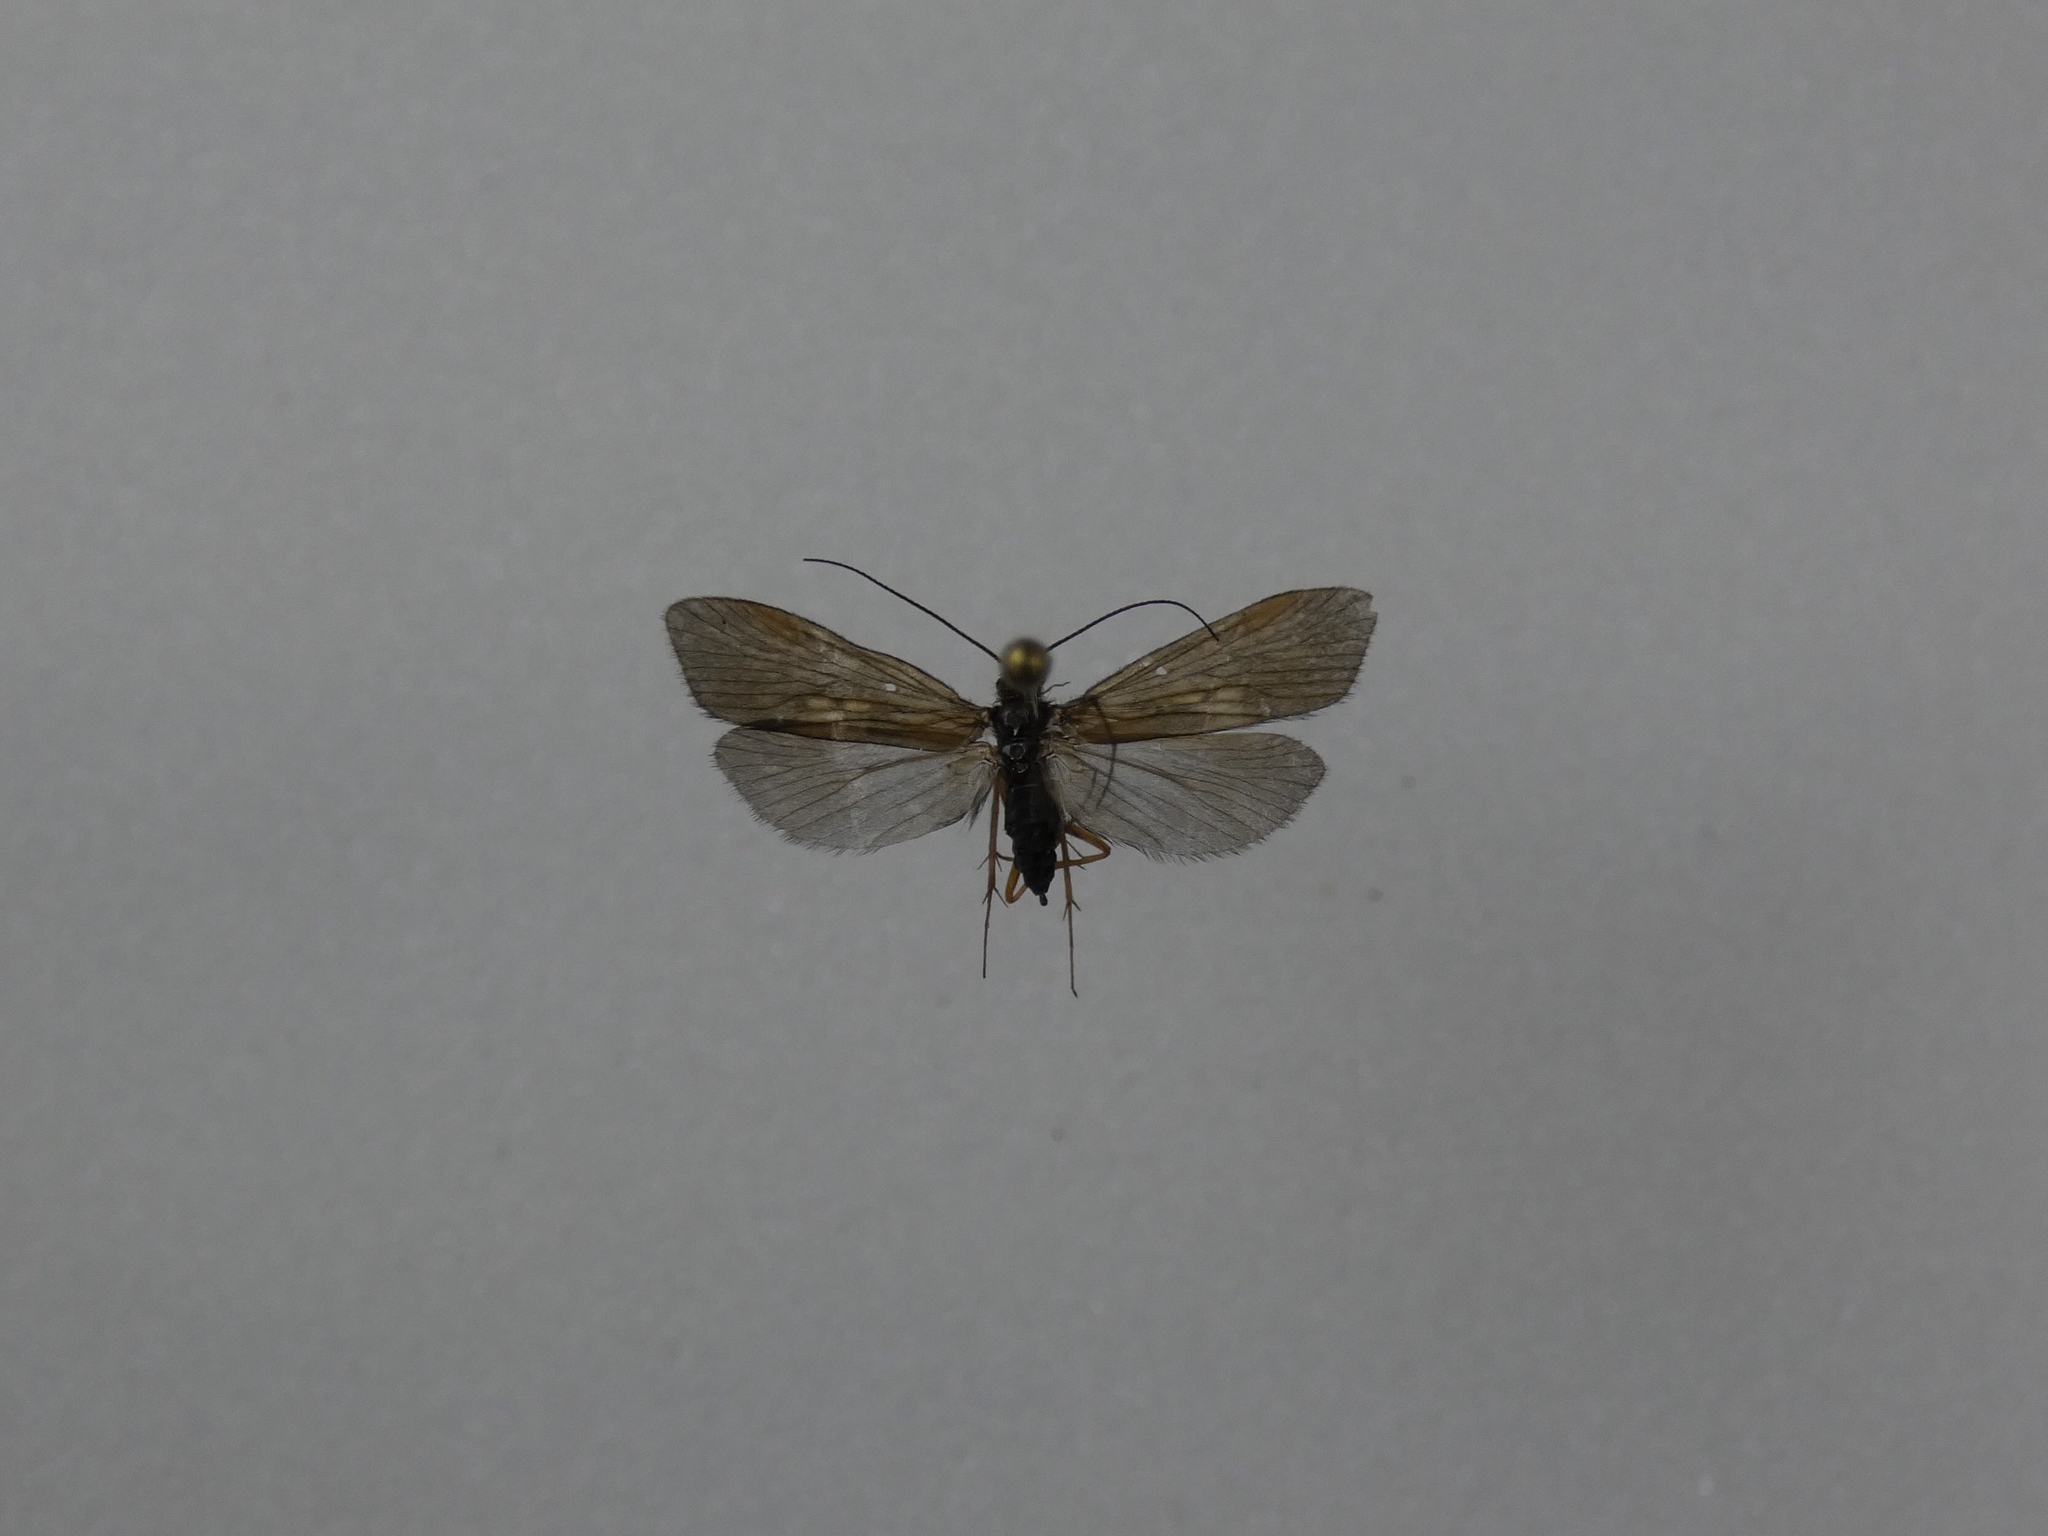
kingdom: Animalia
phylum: Arthropoda
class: Insecta
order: Trichoptera
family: Hydropsychidae
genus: Diplectrona
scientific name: Diplectrona bulla
